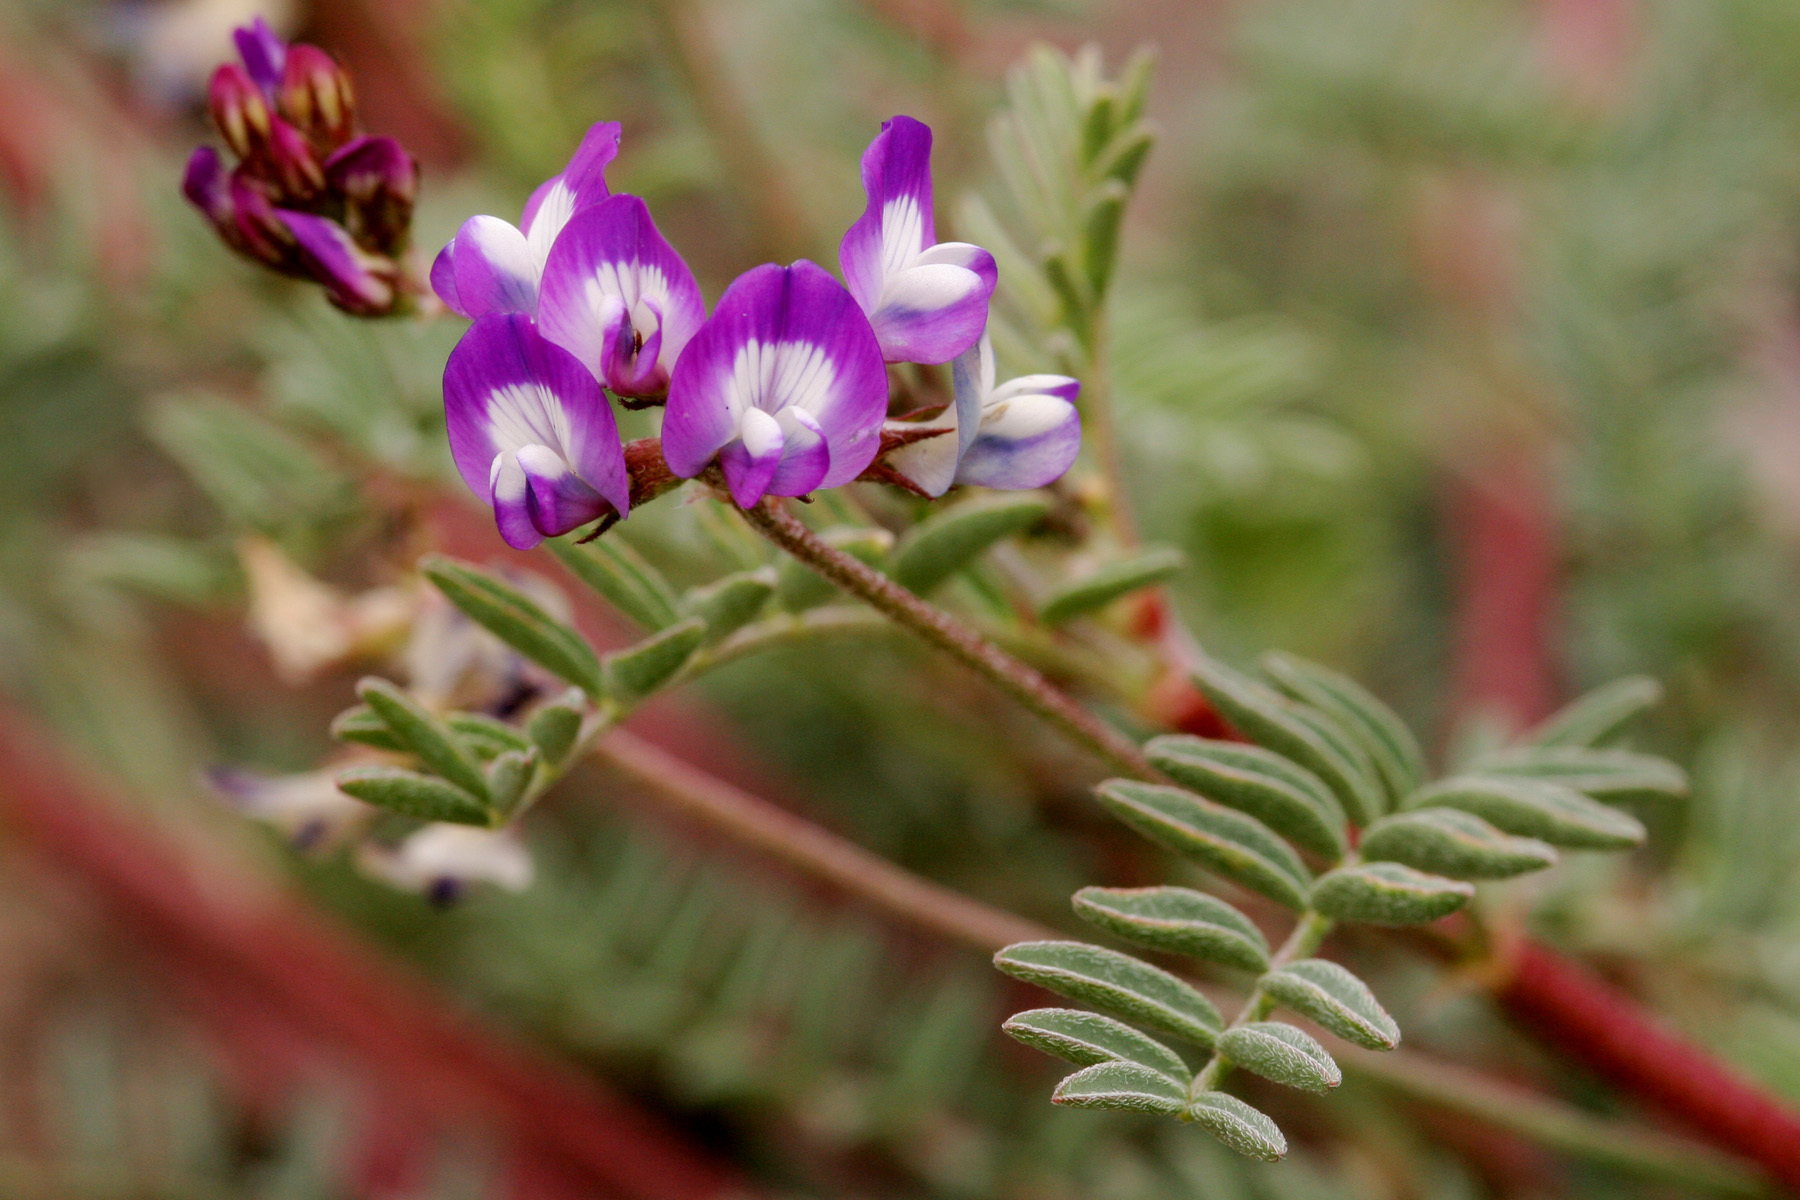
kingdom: Plantae
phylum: Tracheophyta
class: Magnoliopsida
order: Fabales
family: Fabaceae
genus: Astragalus
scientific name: Astragalus emoryanus
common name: Emory's milk-vetch
